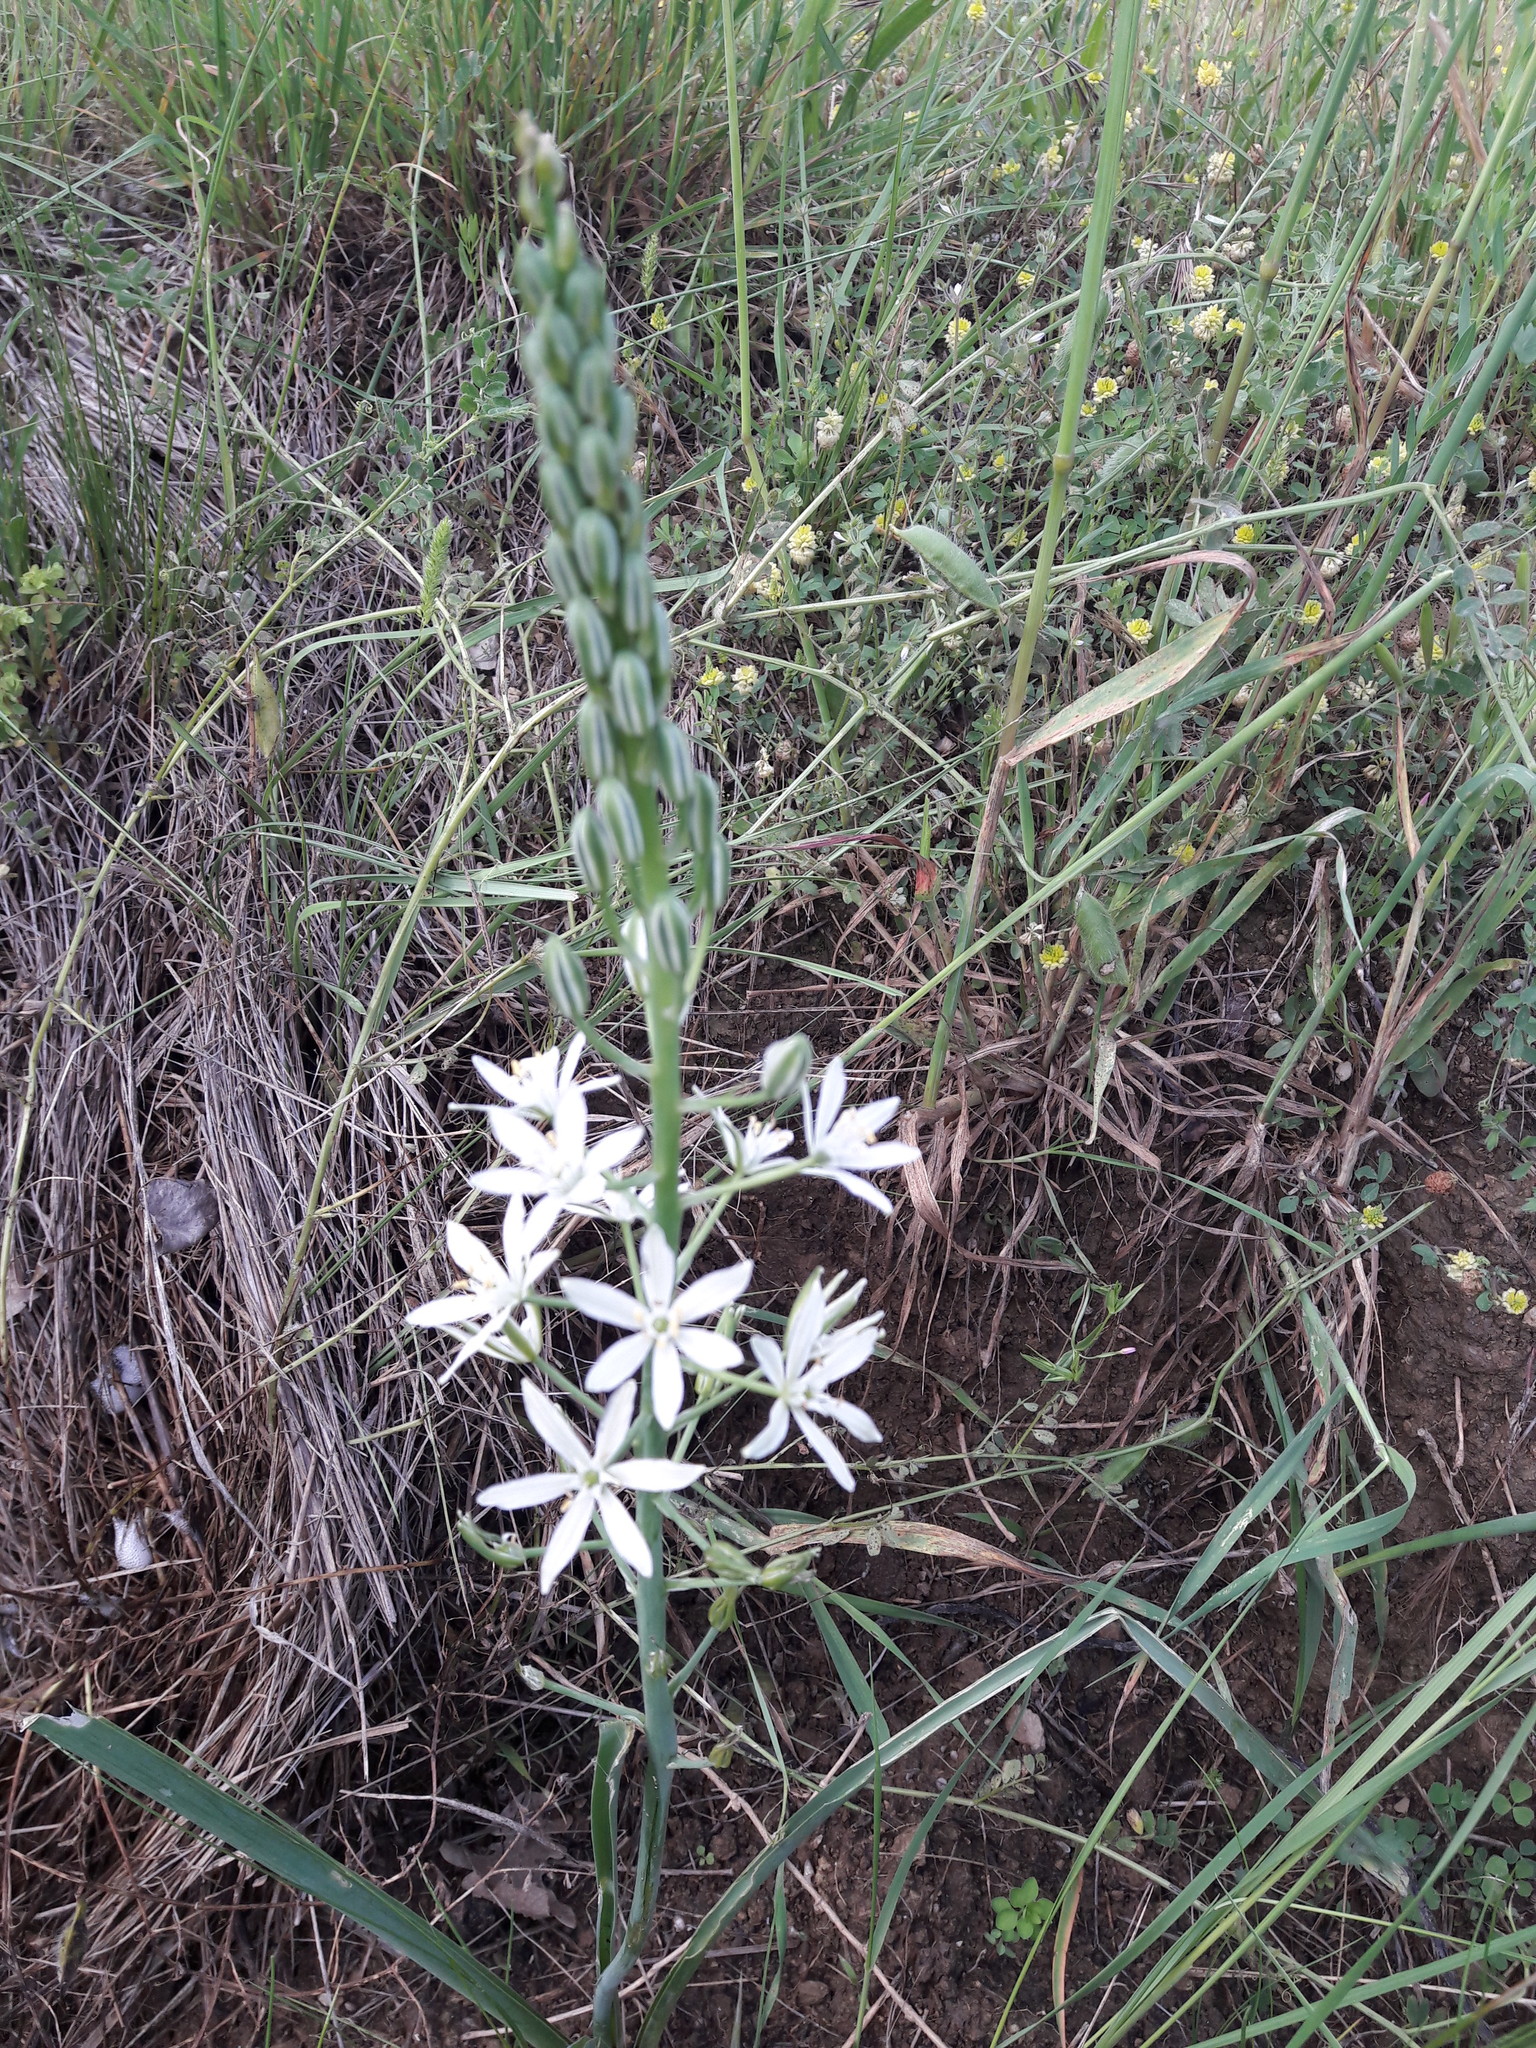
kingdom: Plantae
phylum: Tracheophyta
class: Liliopsida
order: Asparagales
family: Asparagaceae
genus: Ornithogalum
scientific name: Ornithogalum narbonense
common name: Bath-asparagus
